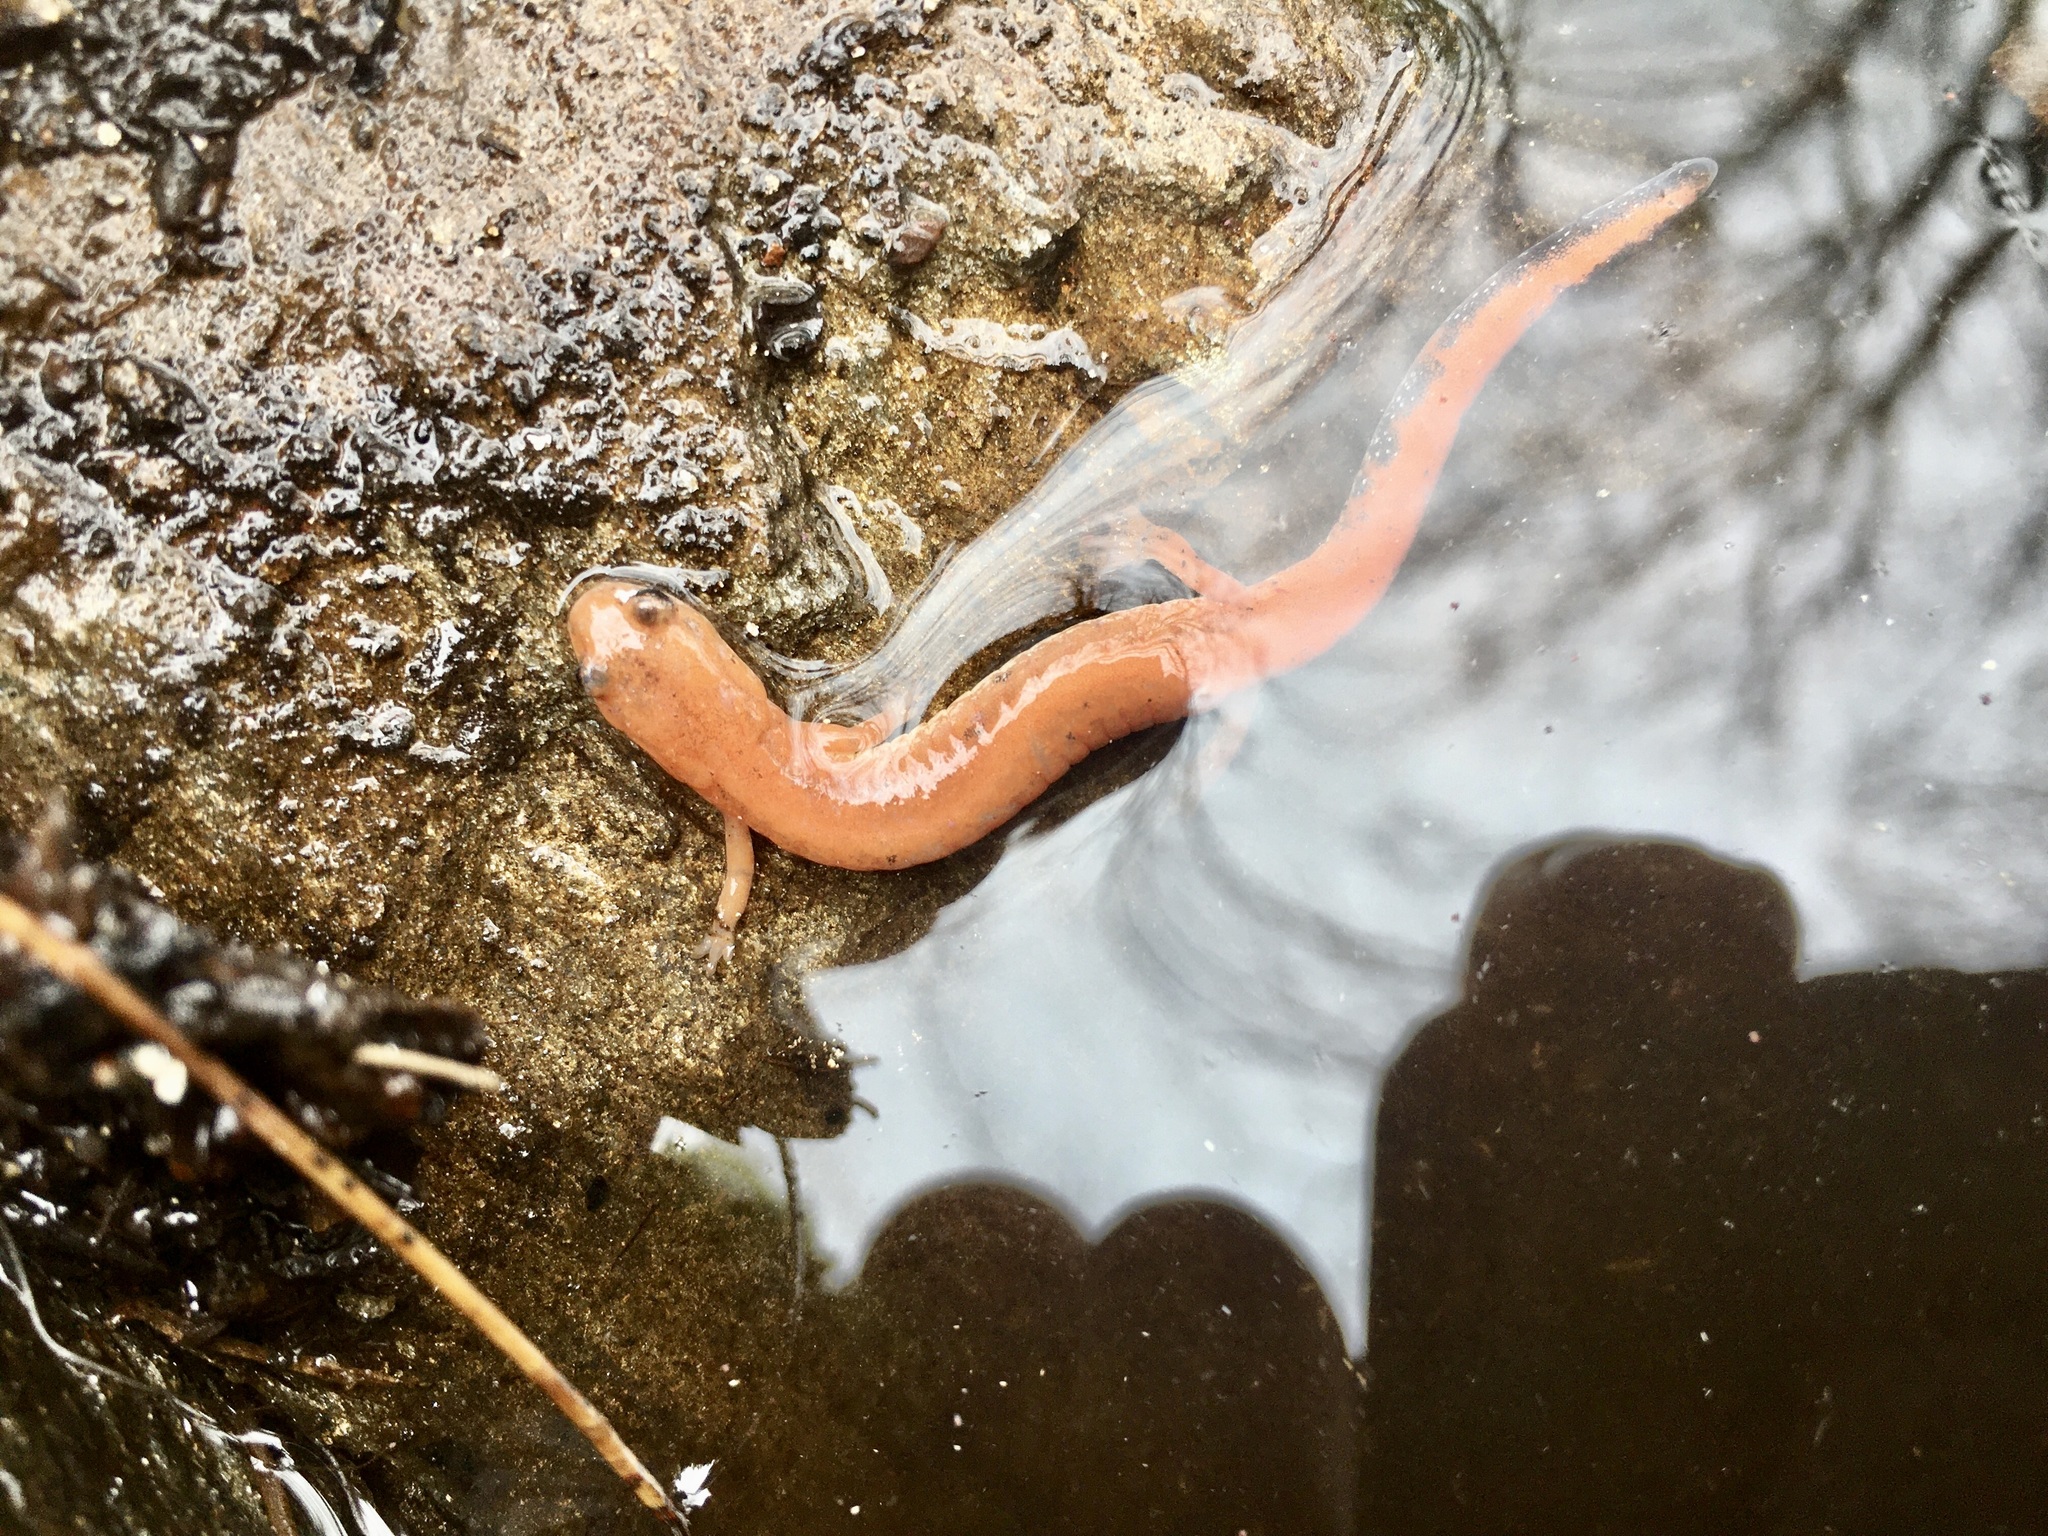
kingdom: Animalia
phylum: Chordata
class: Amphibia
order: Caudata
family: Plethodontidae
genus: Plethodon
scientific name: Plethodon cinereus
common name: Redback salamander
